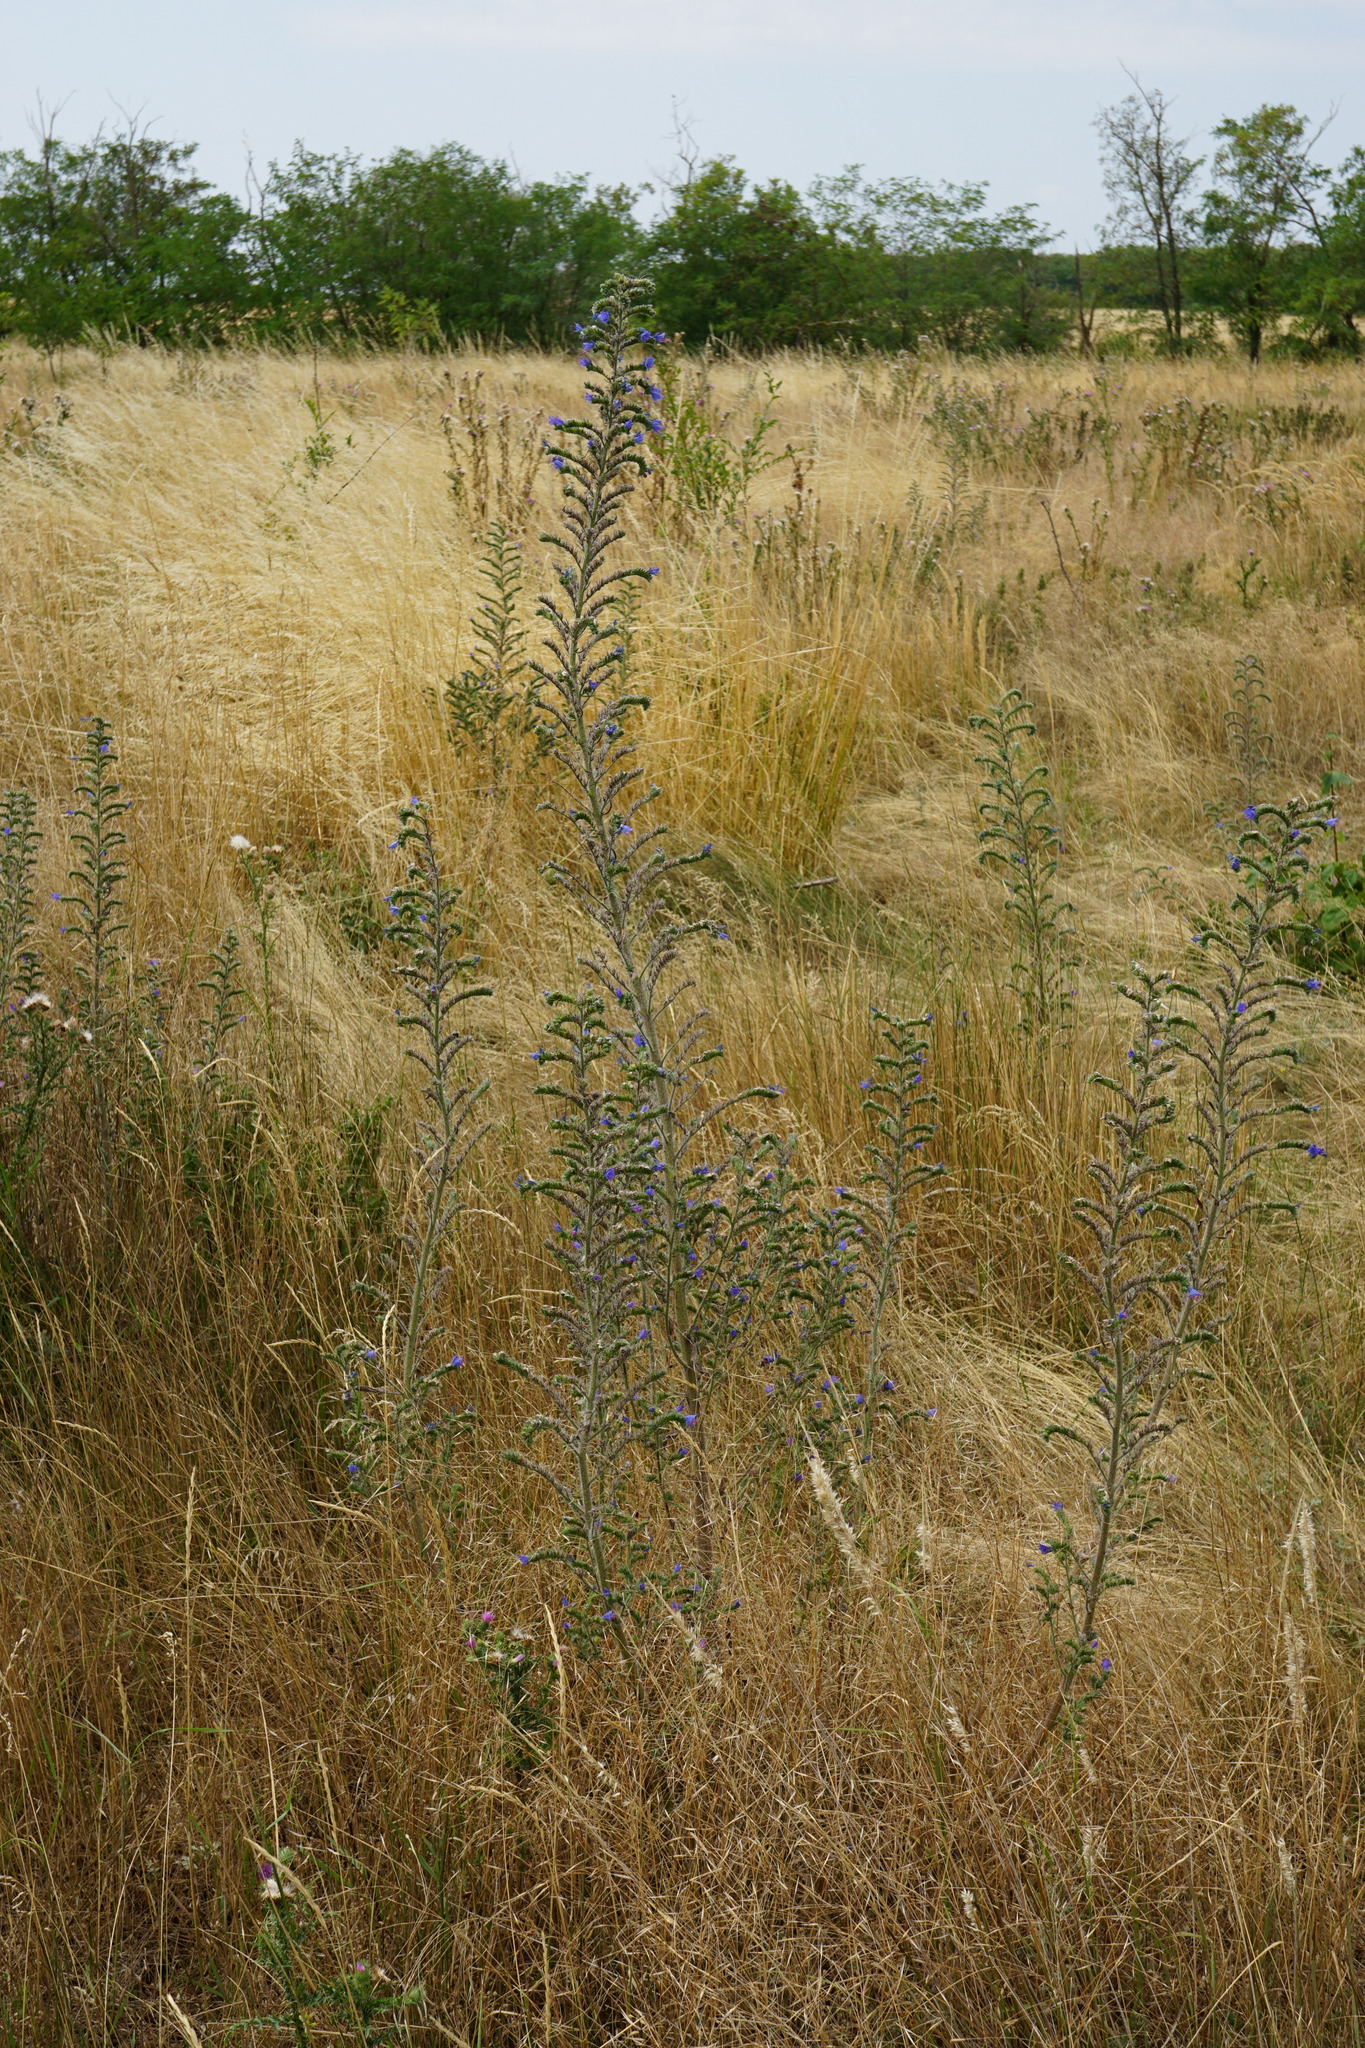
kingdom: Plantae
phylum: Tracheophyta
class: Magnoliopsida
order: Boraginales
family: Boraginaceae
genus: Echium
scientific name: Echium vulgare
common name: Common viper's bugloss
